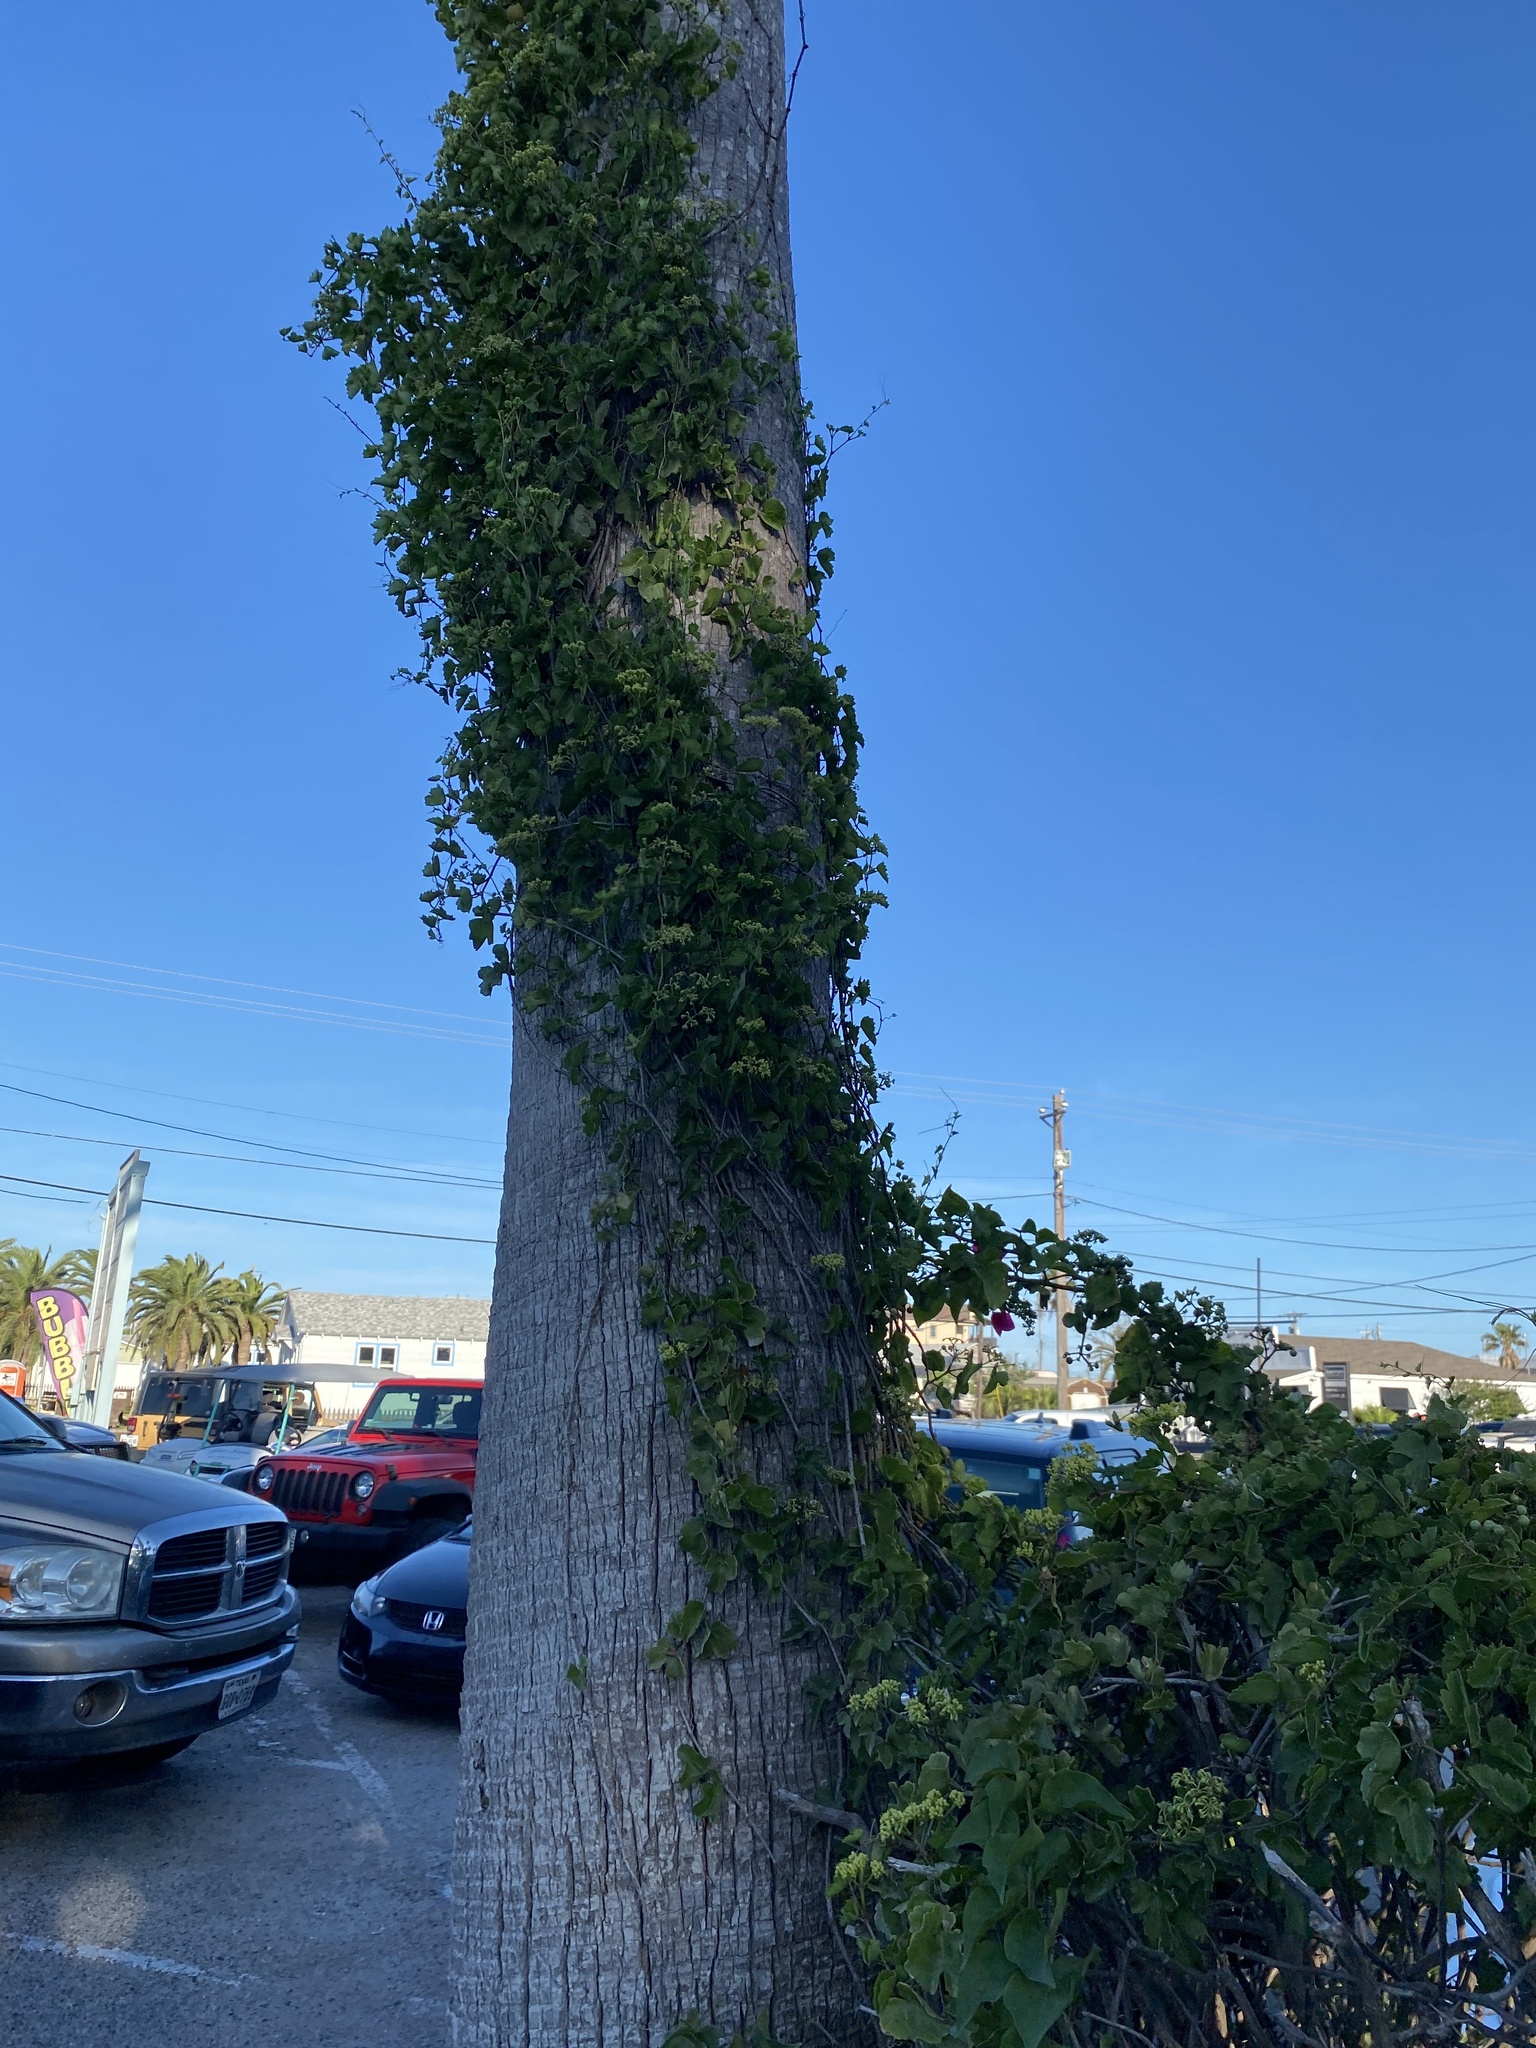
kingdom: Plantae
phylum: Tracheophyta
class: Magnoliopsida
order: Vitales
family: Vitaceae
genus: Cissus
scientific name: Cissus trifoliata
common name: Vine-sorrel
